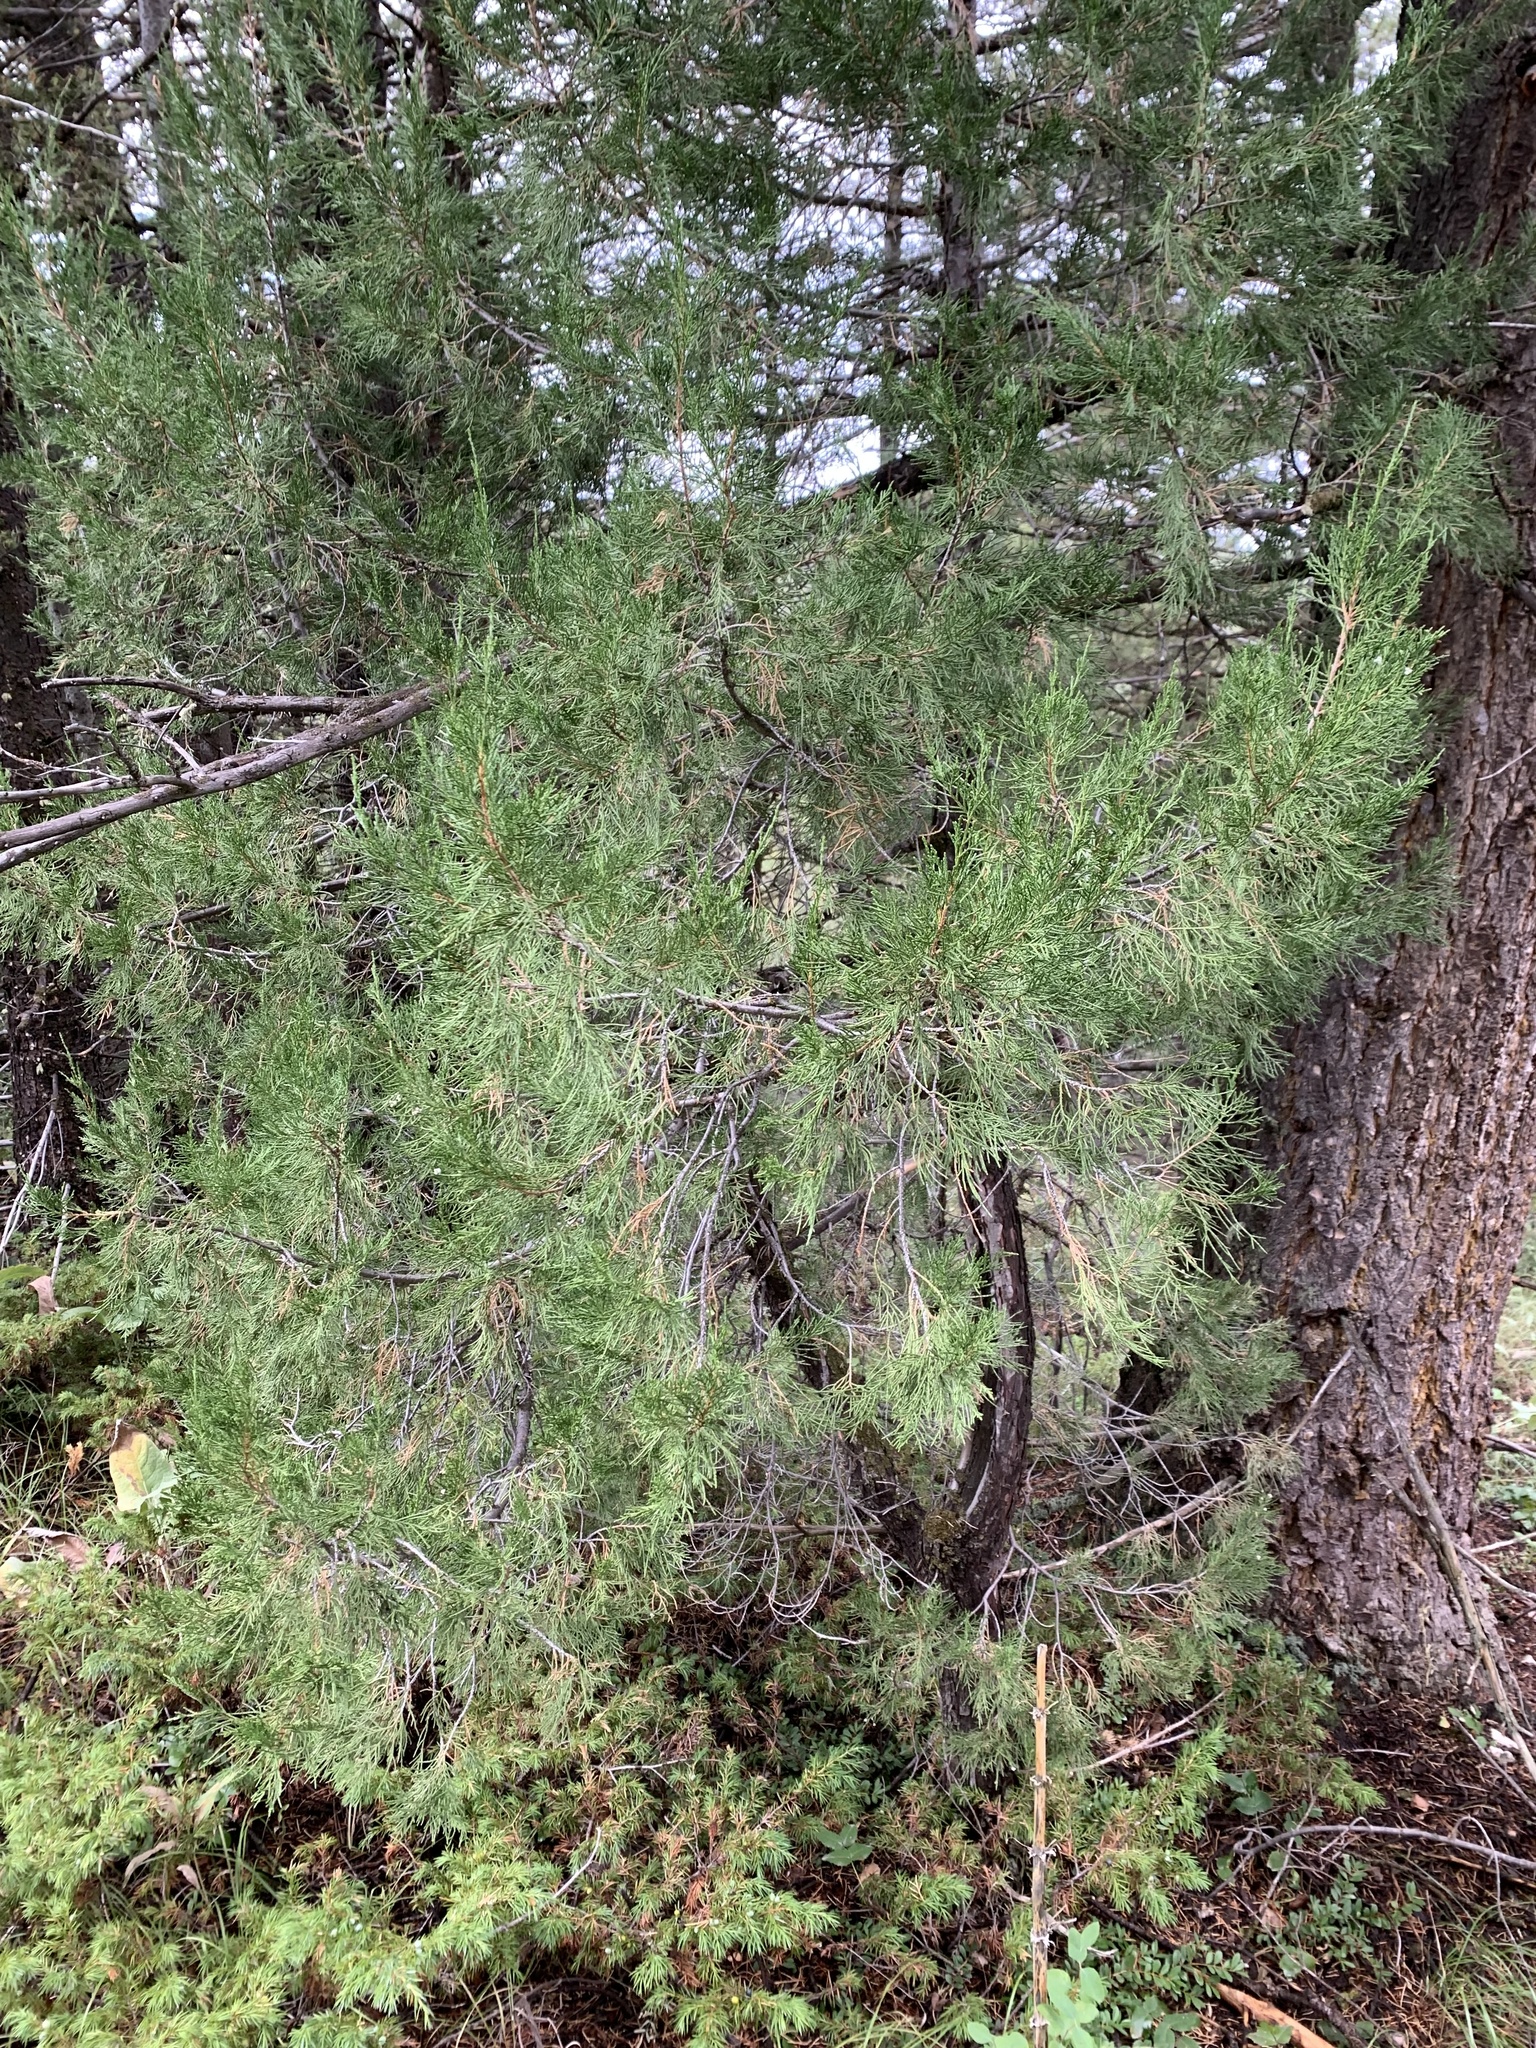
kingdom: Plantae
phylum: Tracheophyta
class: Pinopsida
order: Pinales
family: Cupressaceae
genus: Juniperus
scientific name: Juniperus scopulorum
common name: Rocky mountain juniper
